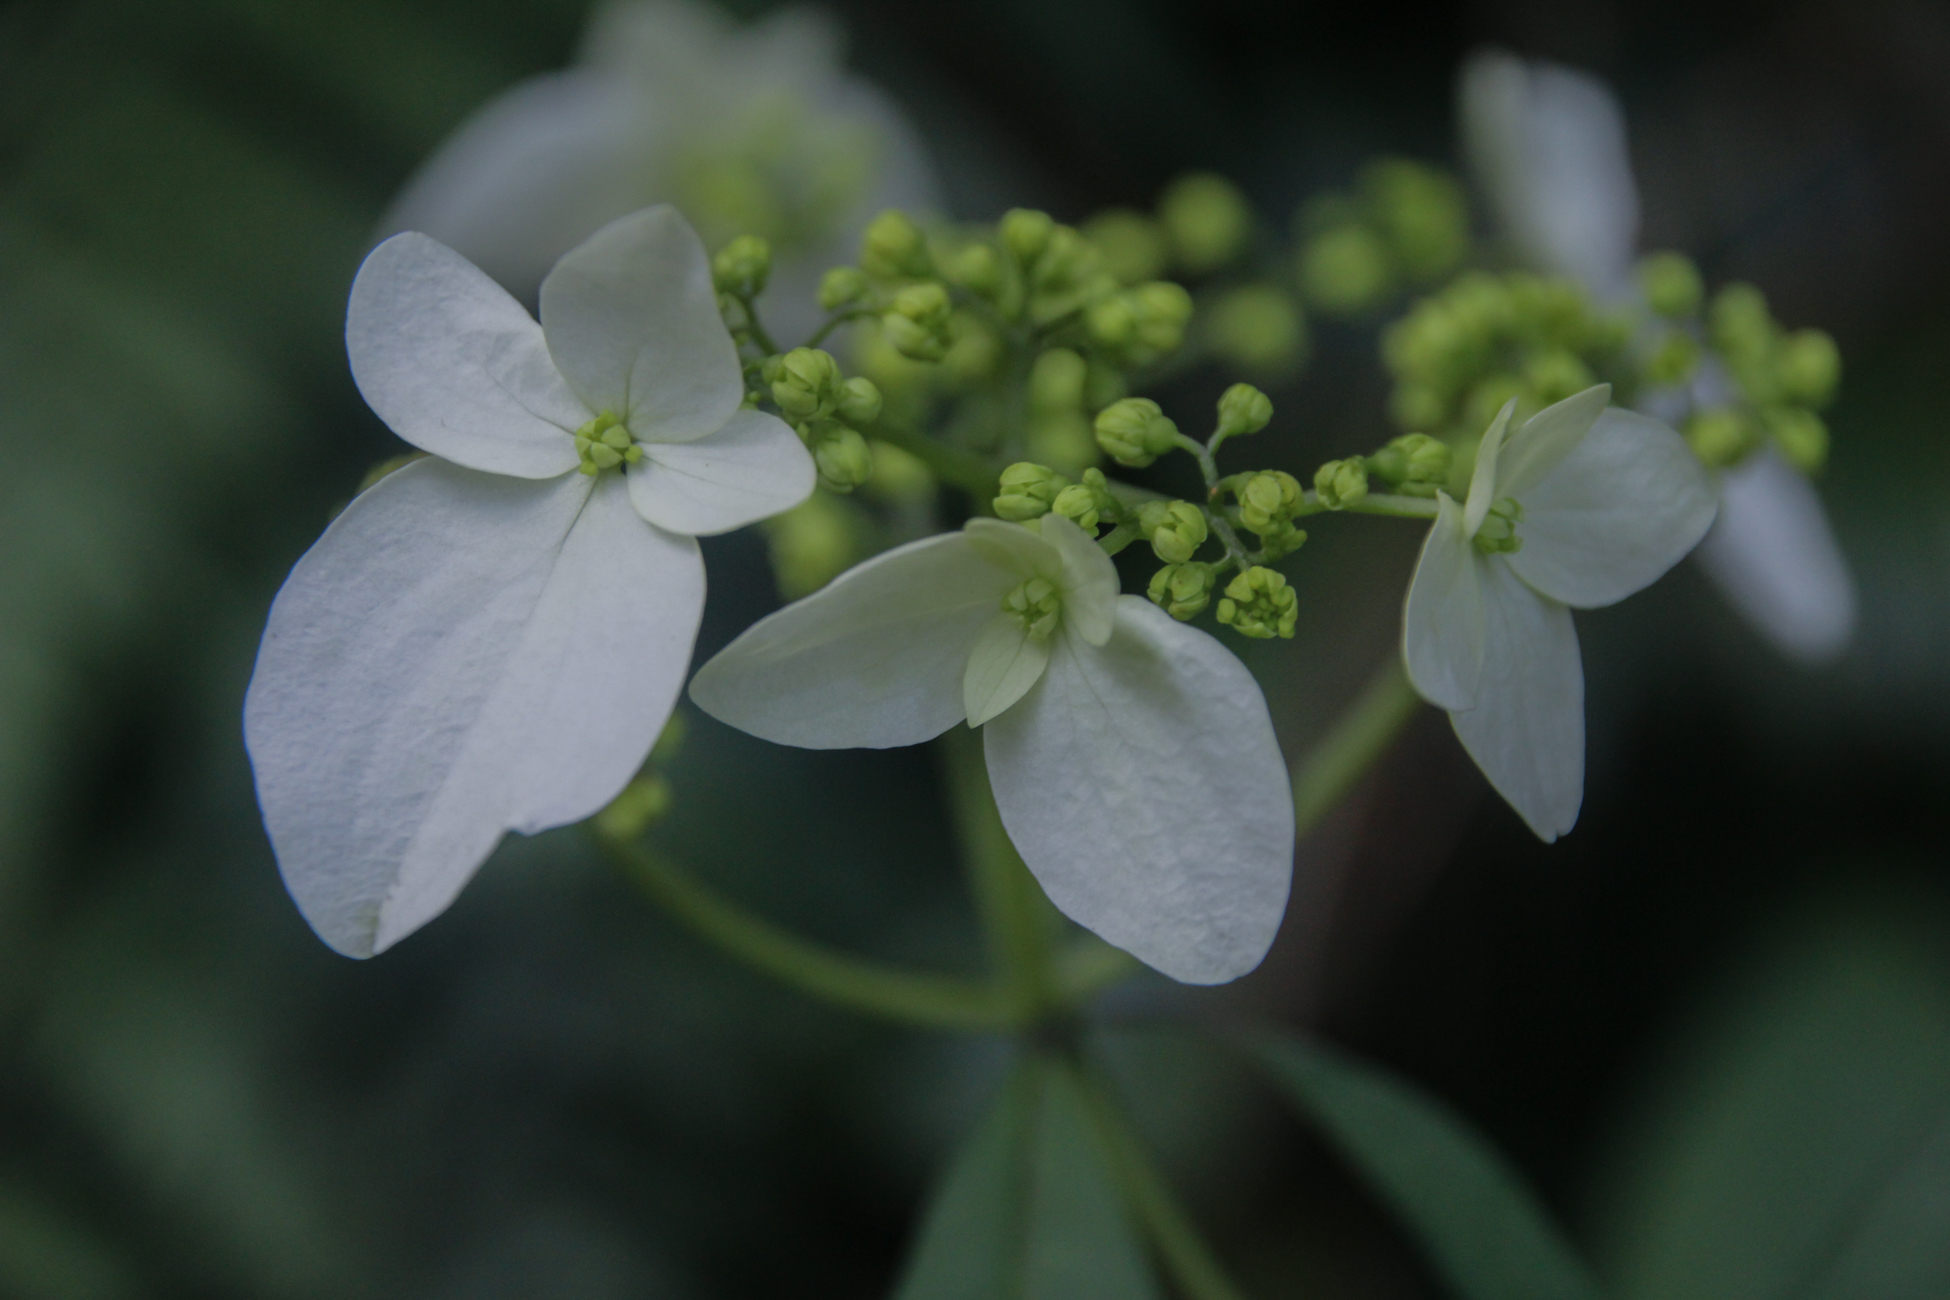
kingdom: Plantae
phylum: Tracheophyta
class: Magnoliopsida
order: Cornales
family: Hydrangeaceae
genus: Hydrangea
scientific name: Hydrangea chinensis
